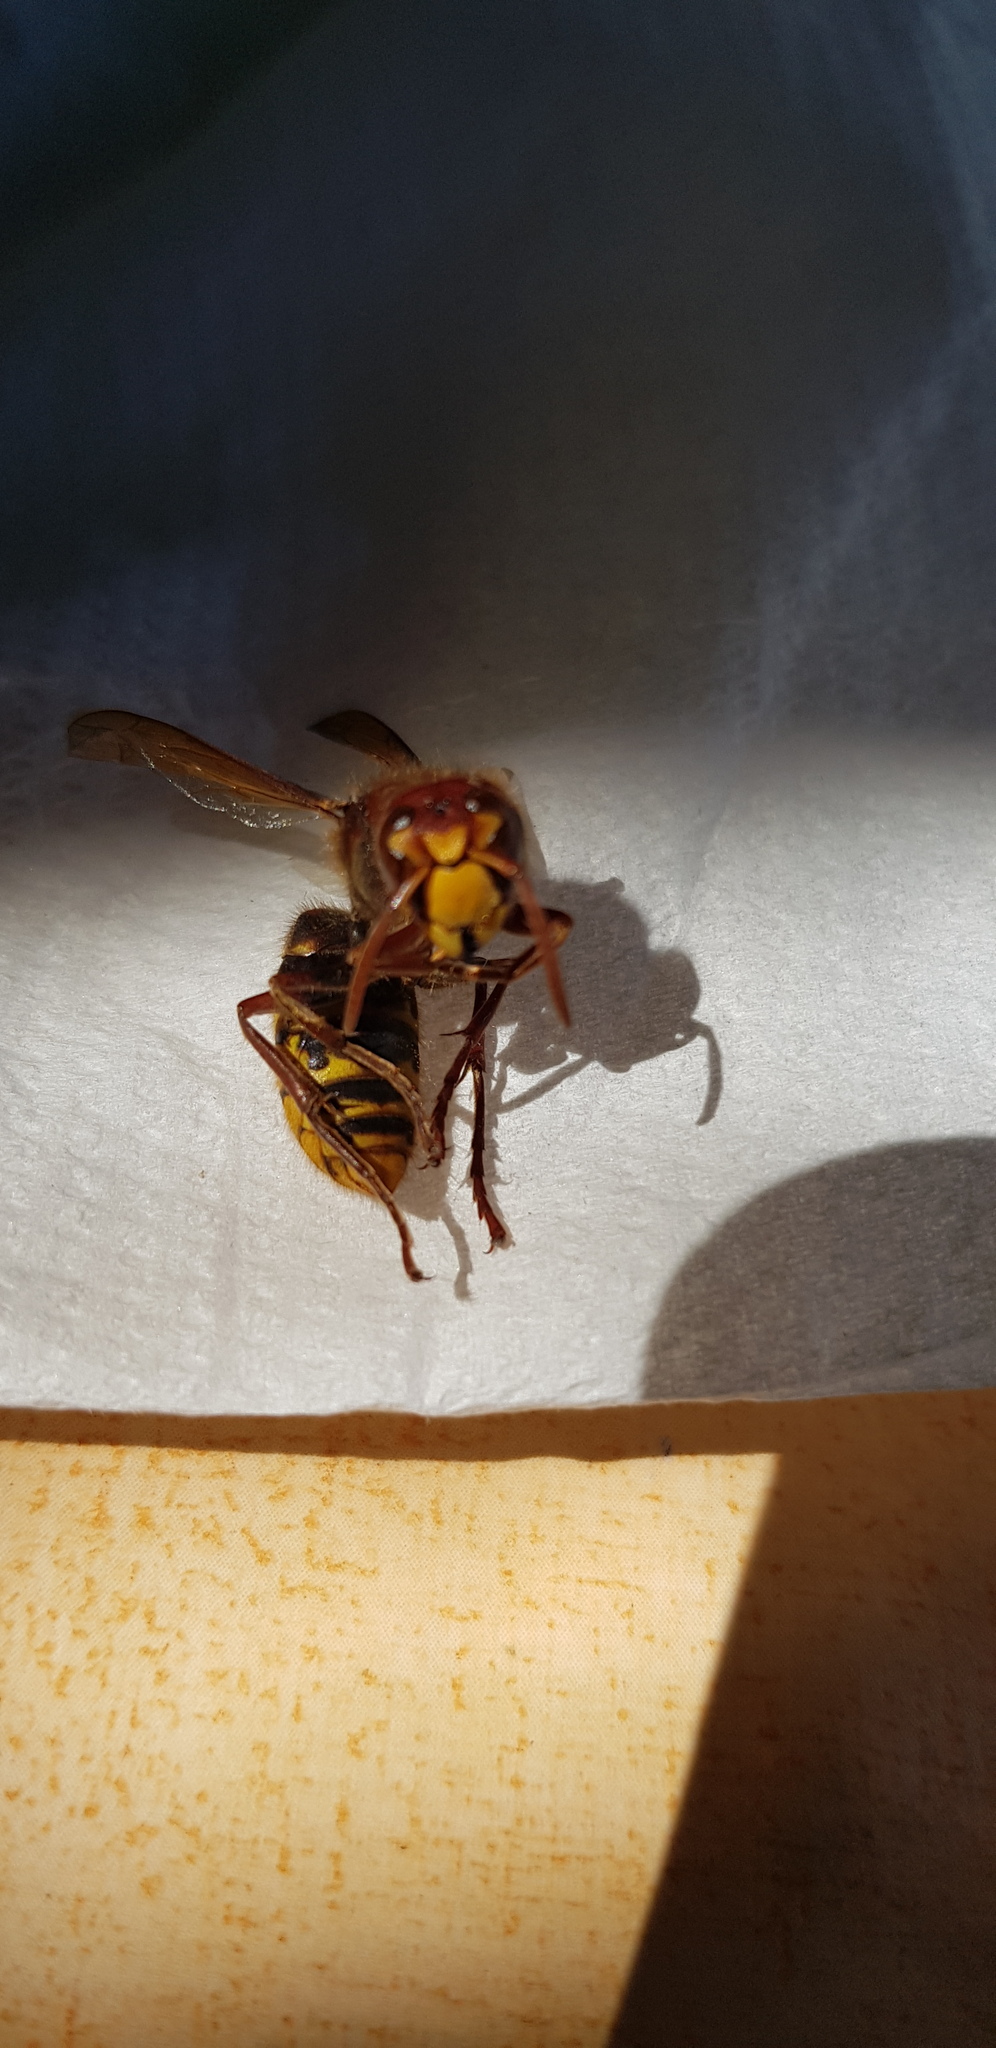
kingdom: Animalia
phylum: Arthropoda
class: Insecta
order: Hymenoptera
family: Vespidae
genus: Vespa
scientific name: Vespa crabro
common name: Hornet
